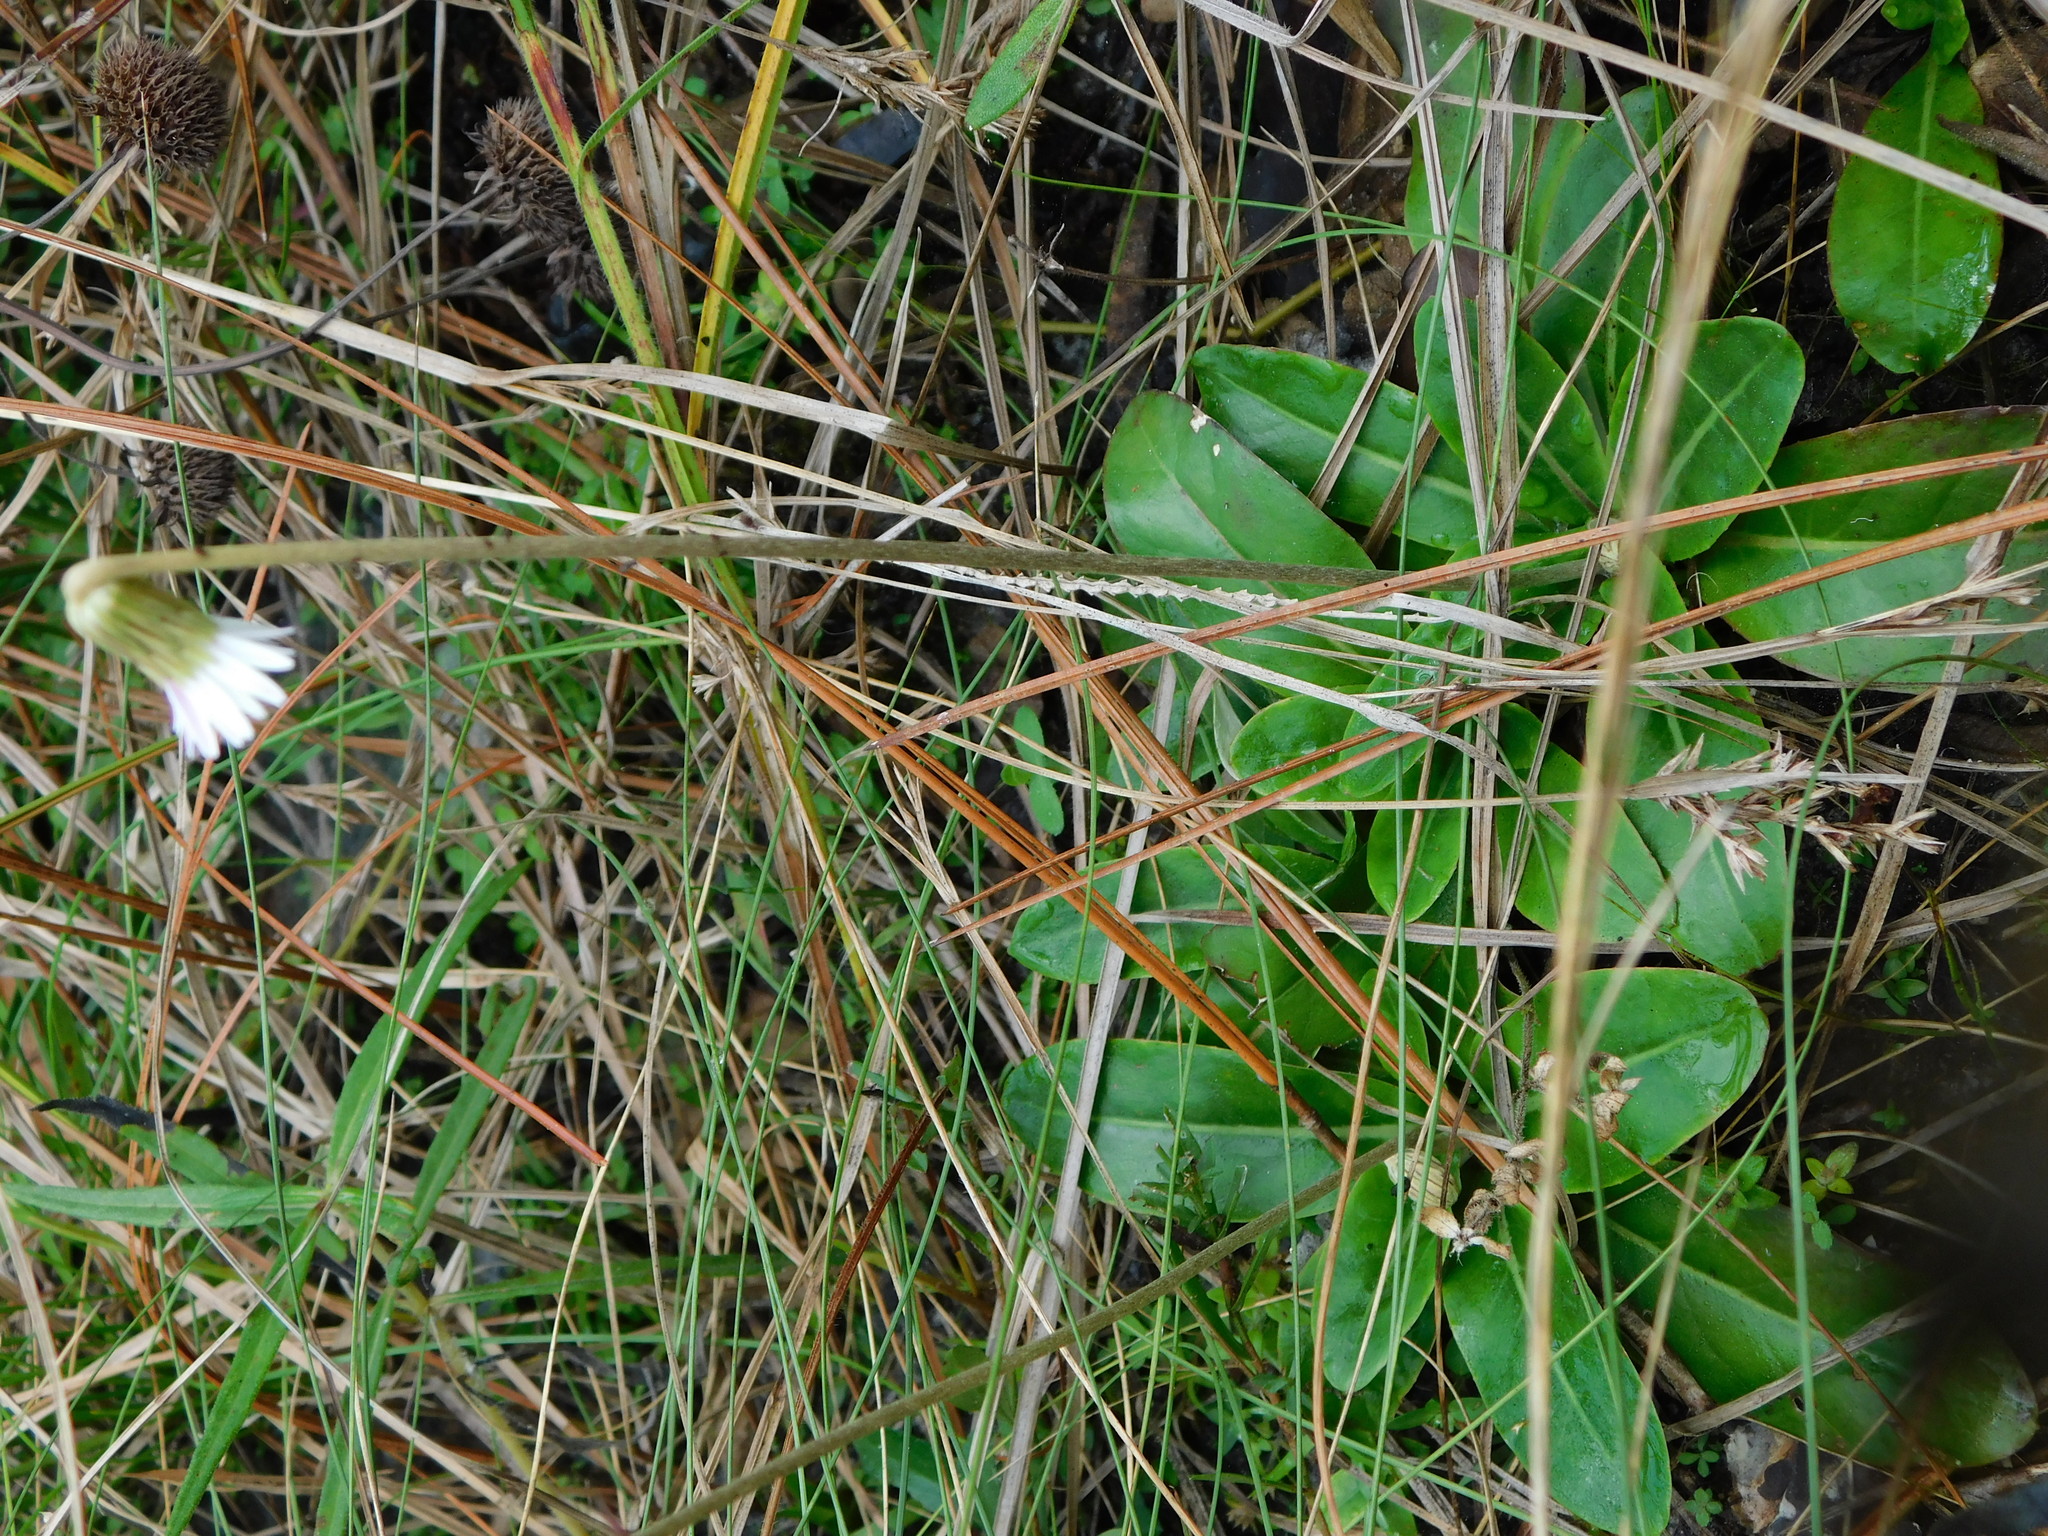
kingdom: Plantae
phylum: Tracheophyta
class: Magnoliopsida
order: Asterales
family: Asteraceae
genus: Chaptalia
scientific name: Chaptalia tomentosa
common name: Woolly sunbonnet
